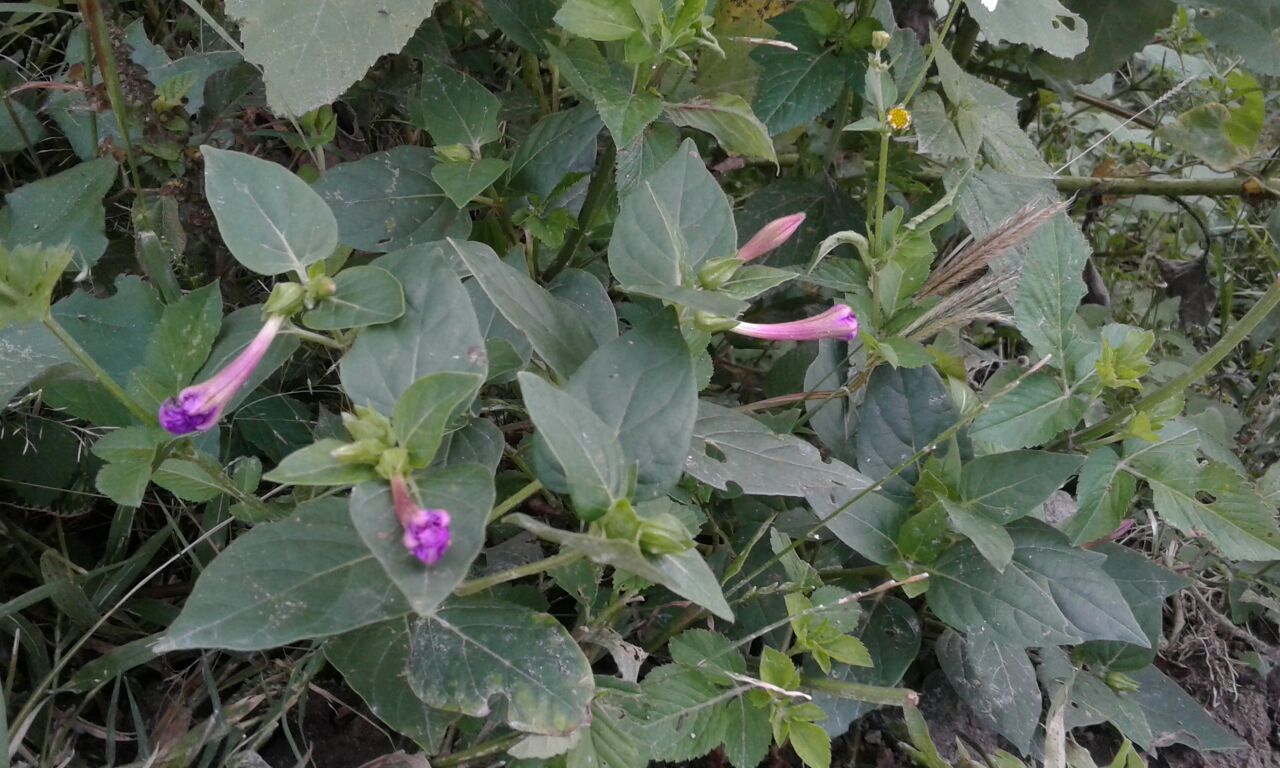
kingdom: Plantae
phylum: Tracheophyta
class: Magnoliopsida
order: Caryophyllales
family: Nyctaginaceae
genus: Mirabilis
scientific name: Mirabilis jalapa
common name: Marvel-of-peru
